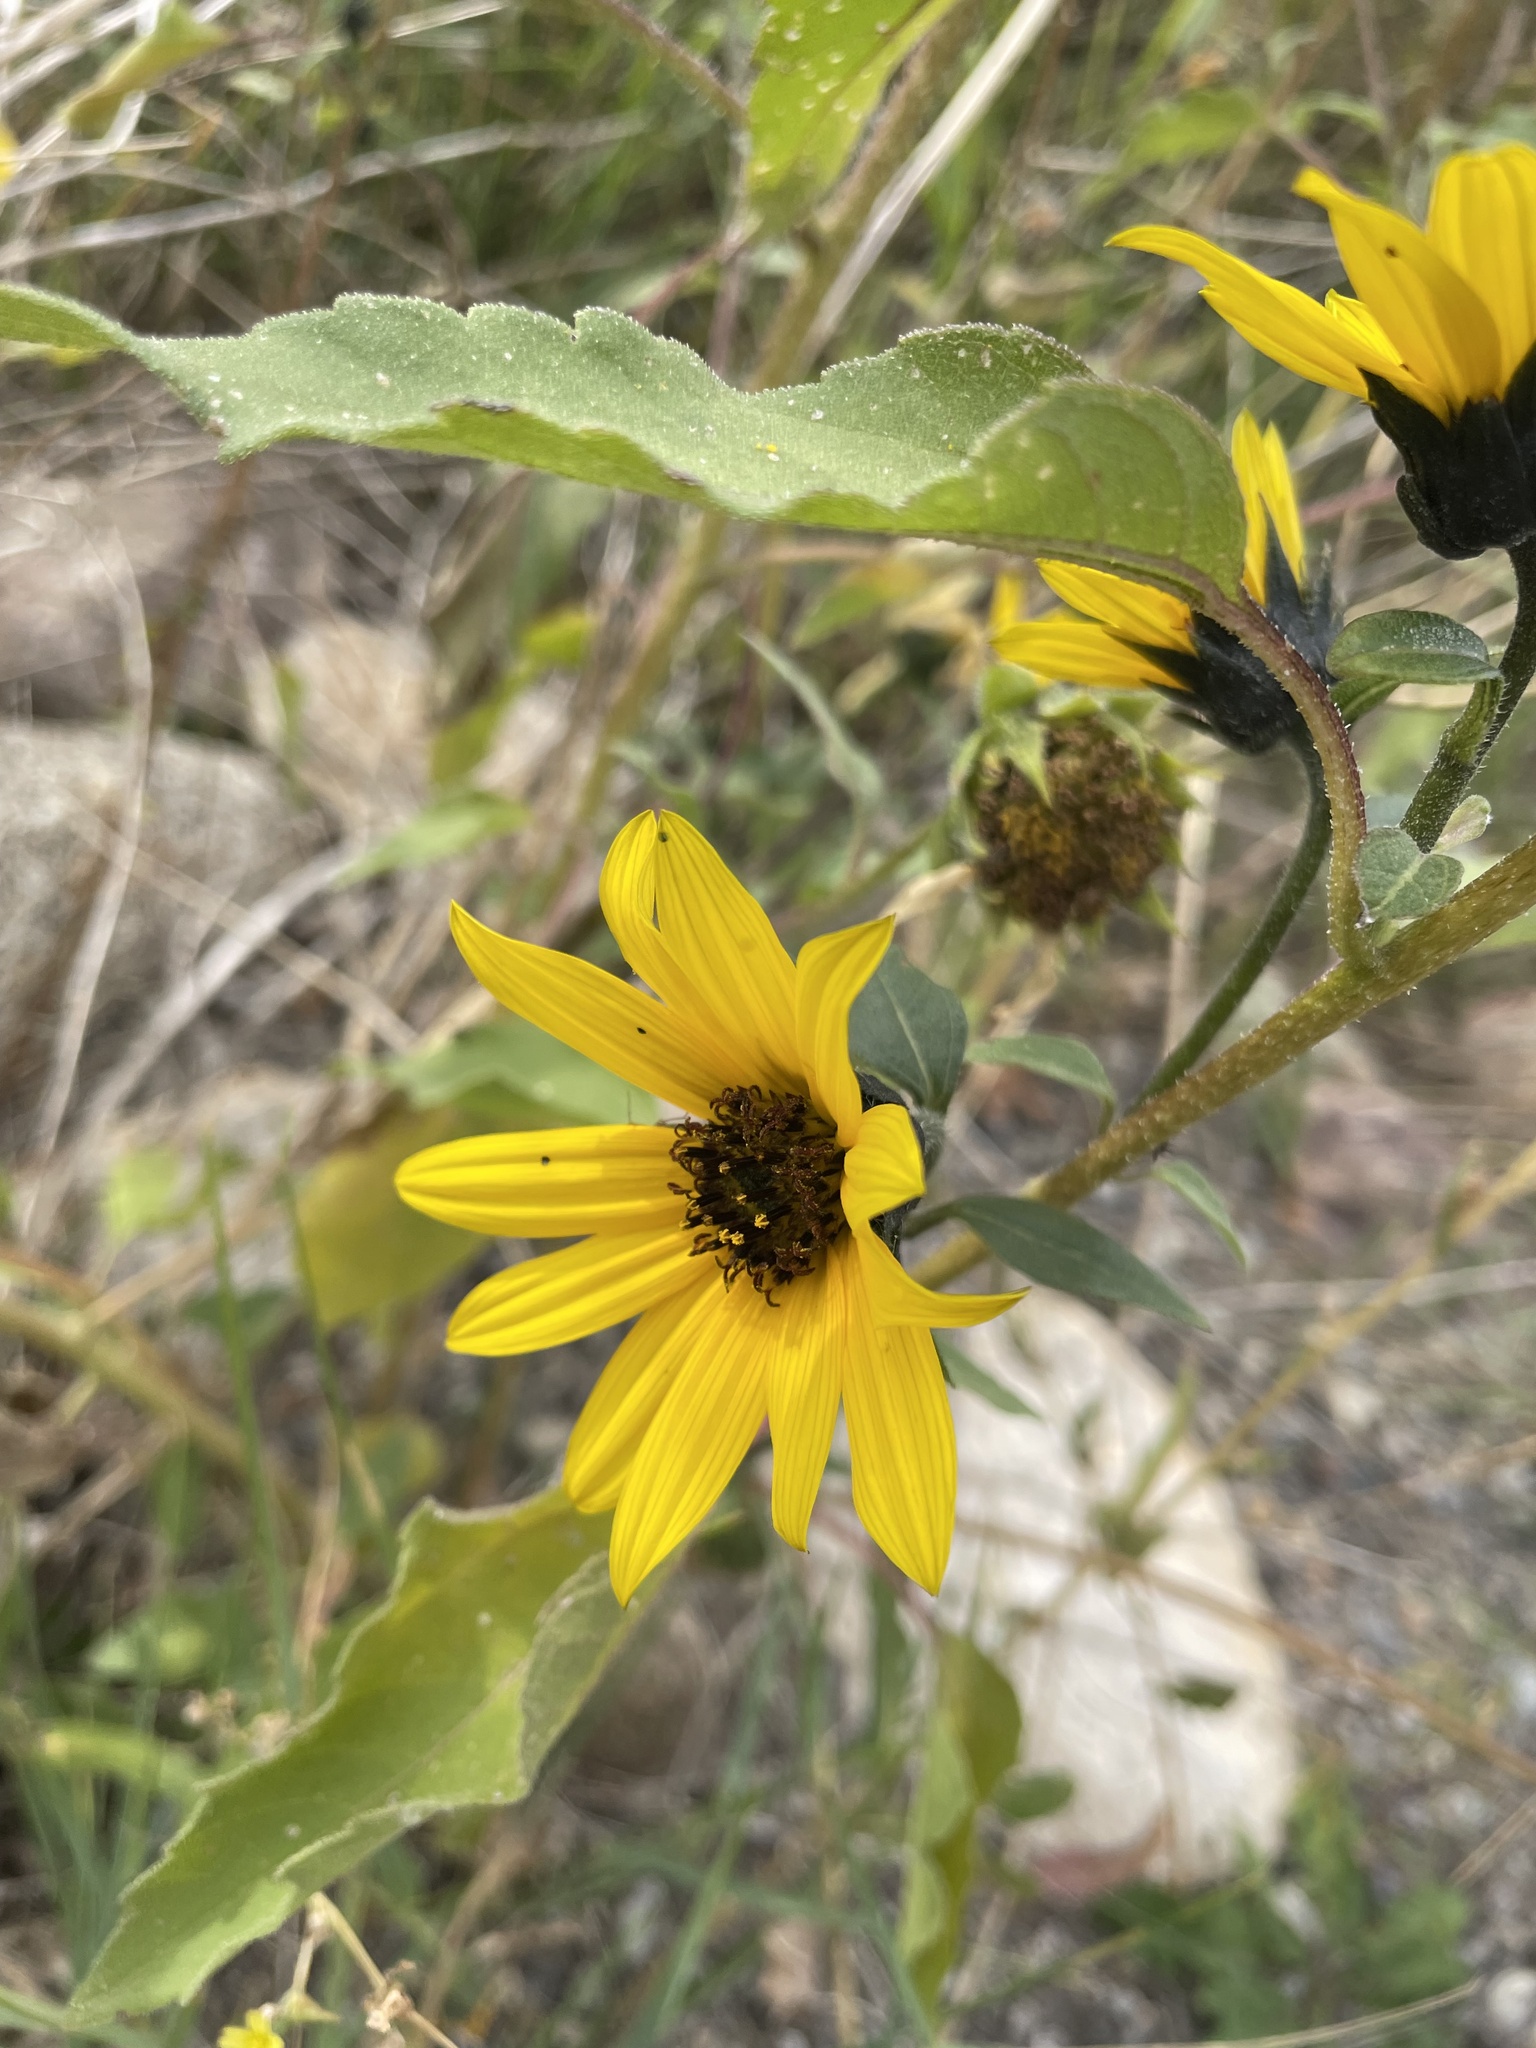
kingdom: Plantae
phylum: Tracheophyta
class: Magnoliopsida
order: Asterales
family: Asteraceae
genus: Helianthus
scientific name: Helianthus petiolaris
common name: Lesser sunflower
